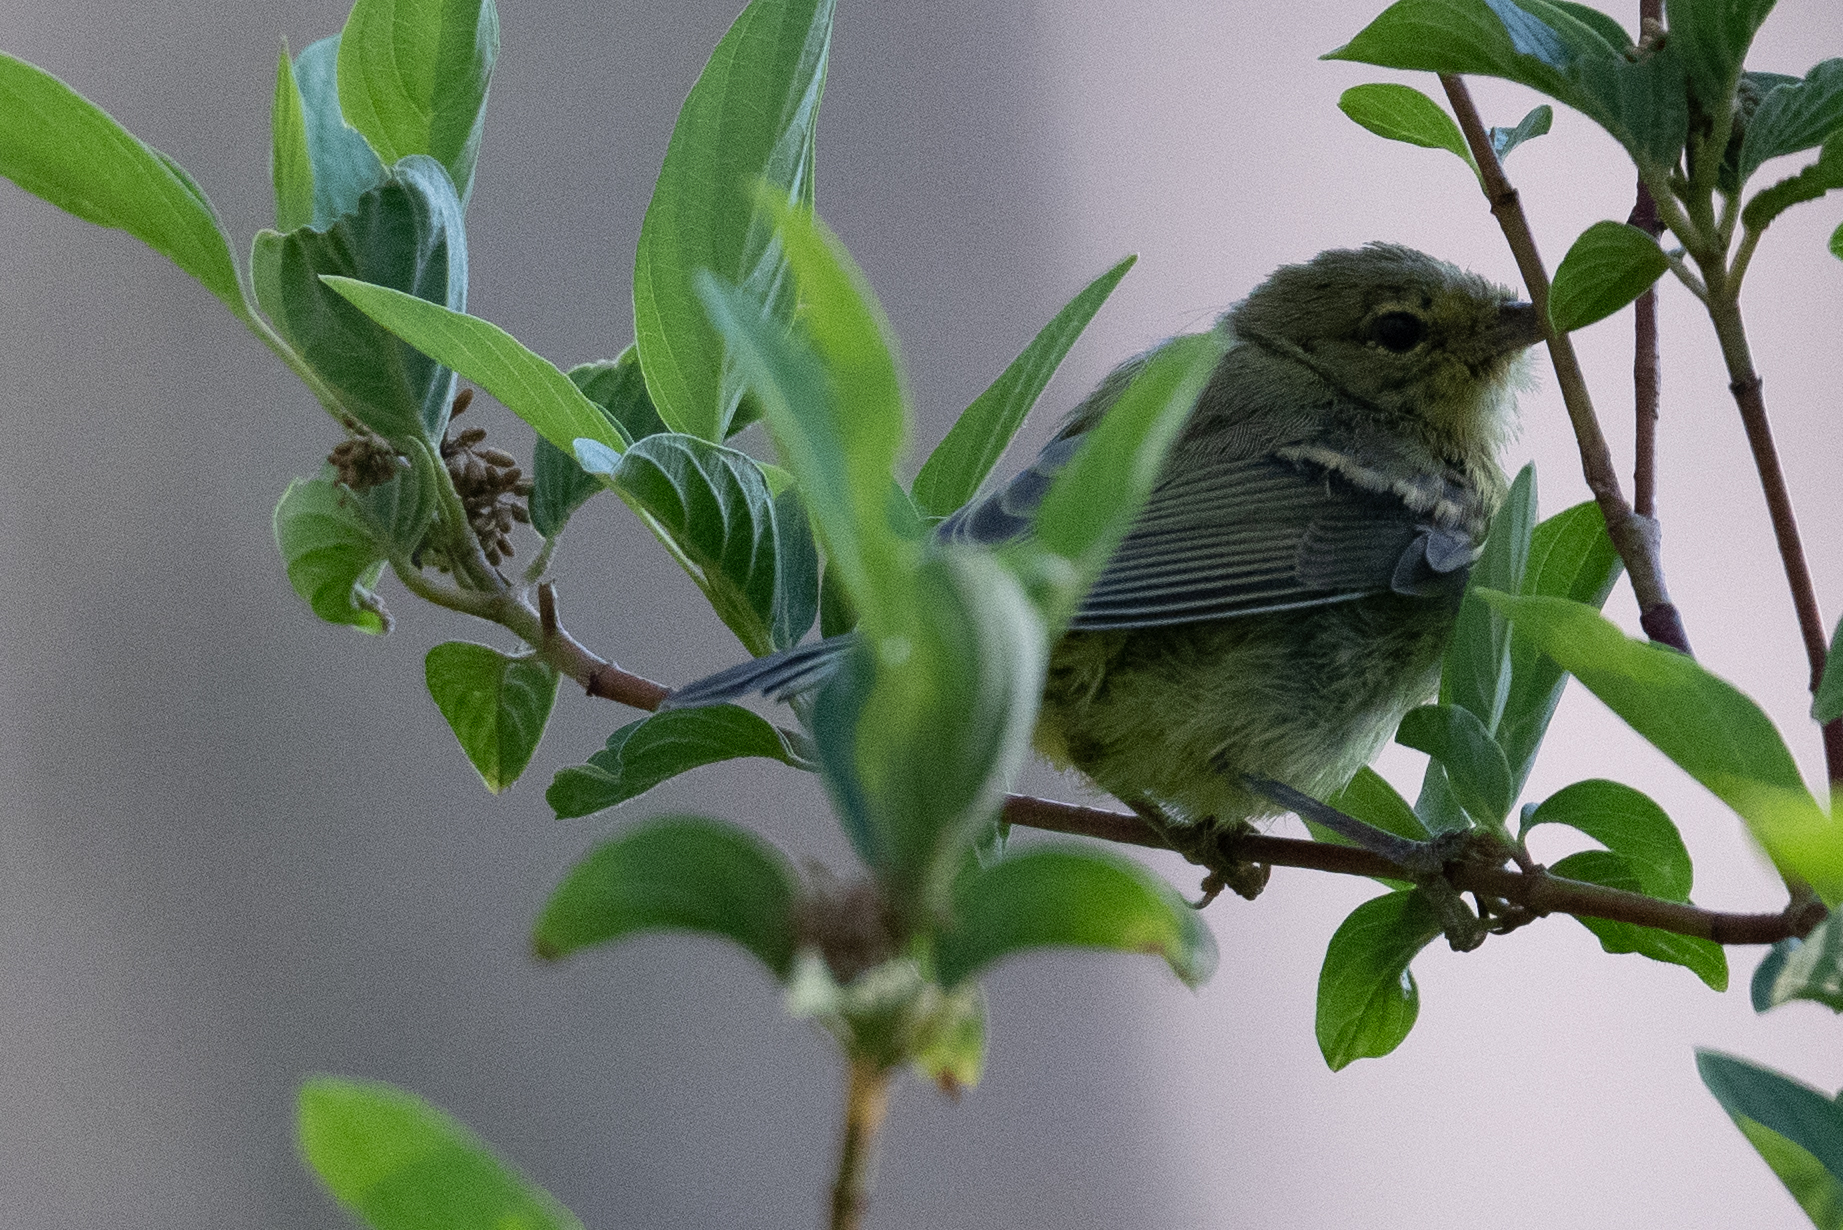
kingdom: Animalia
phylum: Chordata
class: Aves
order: Passeriformes
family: Parulidae
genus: Leiothlypis
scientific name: Leiothlypis celata
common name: Orange-crowned warbler
